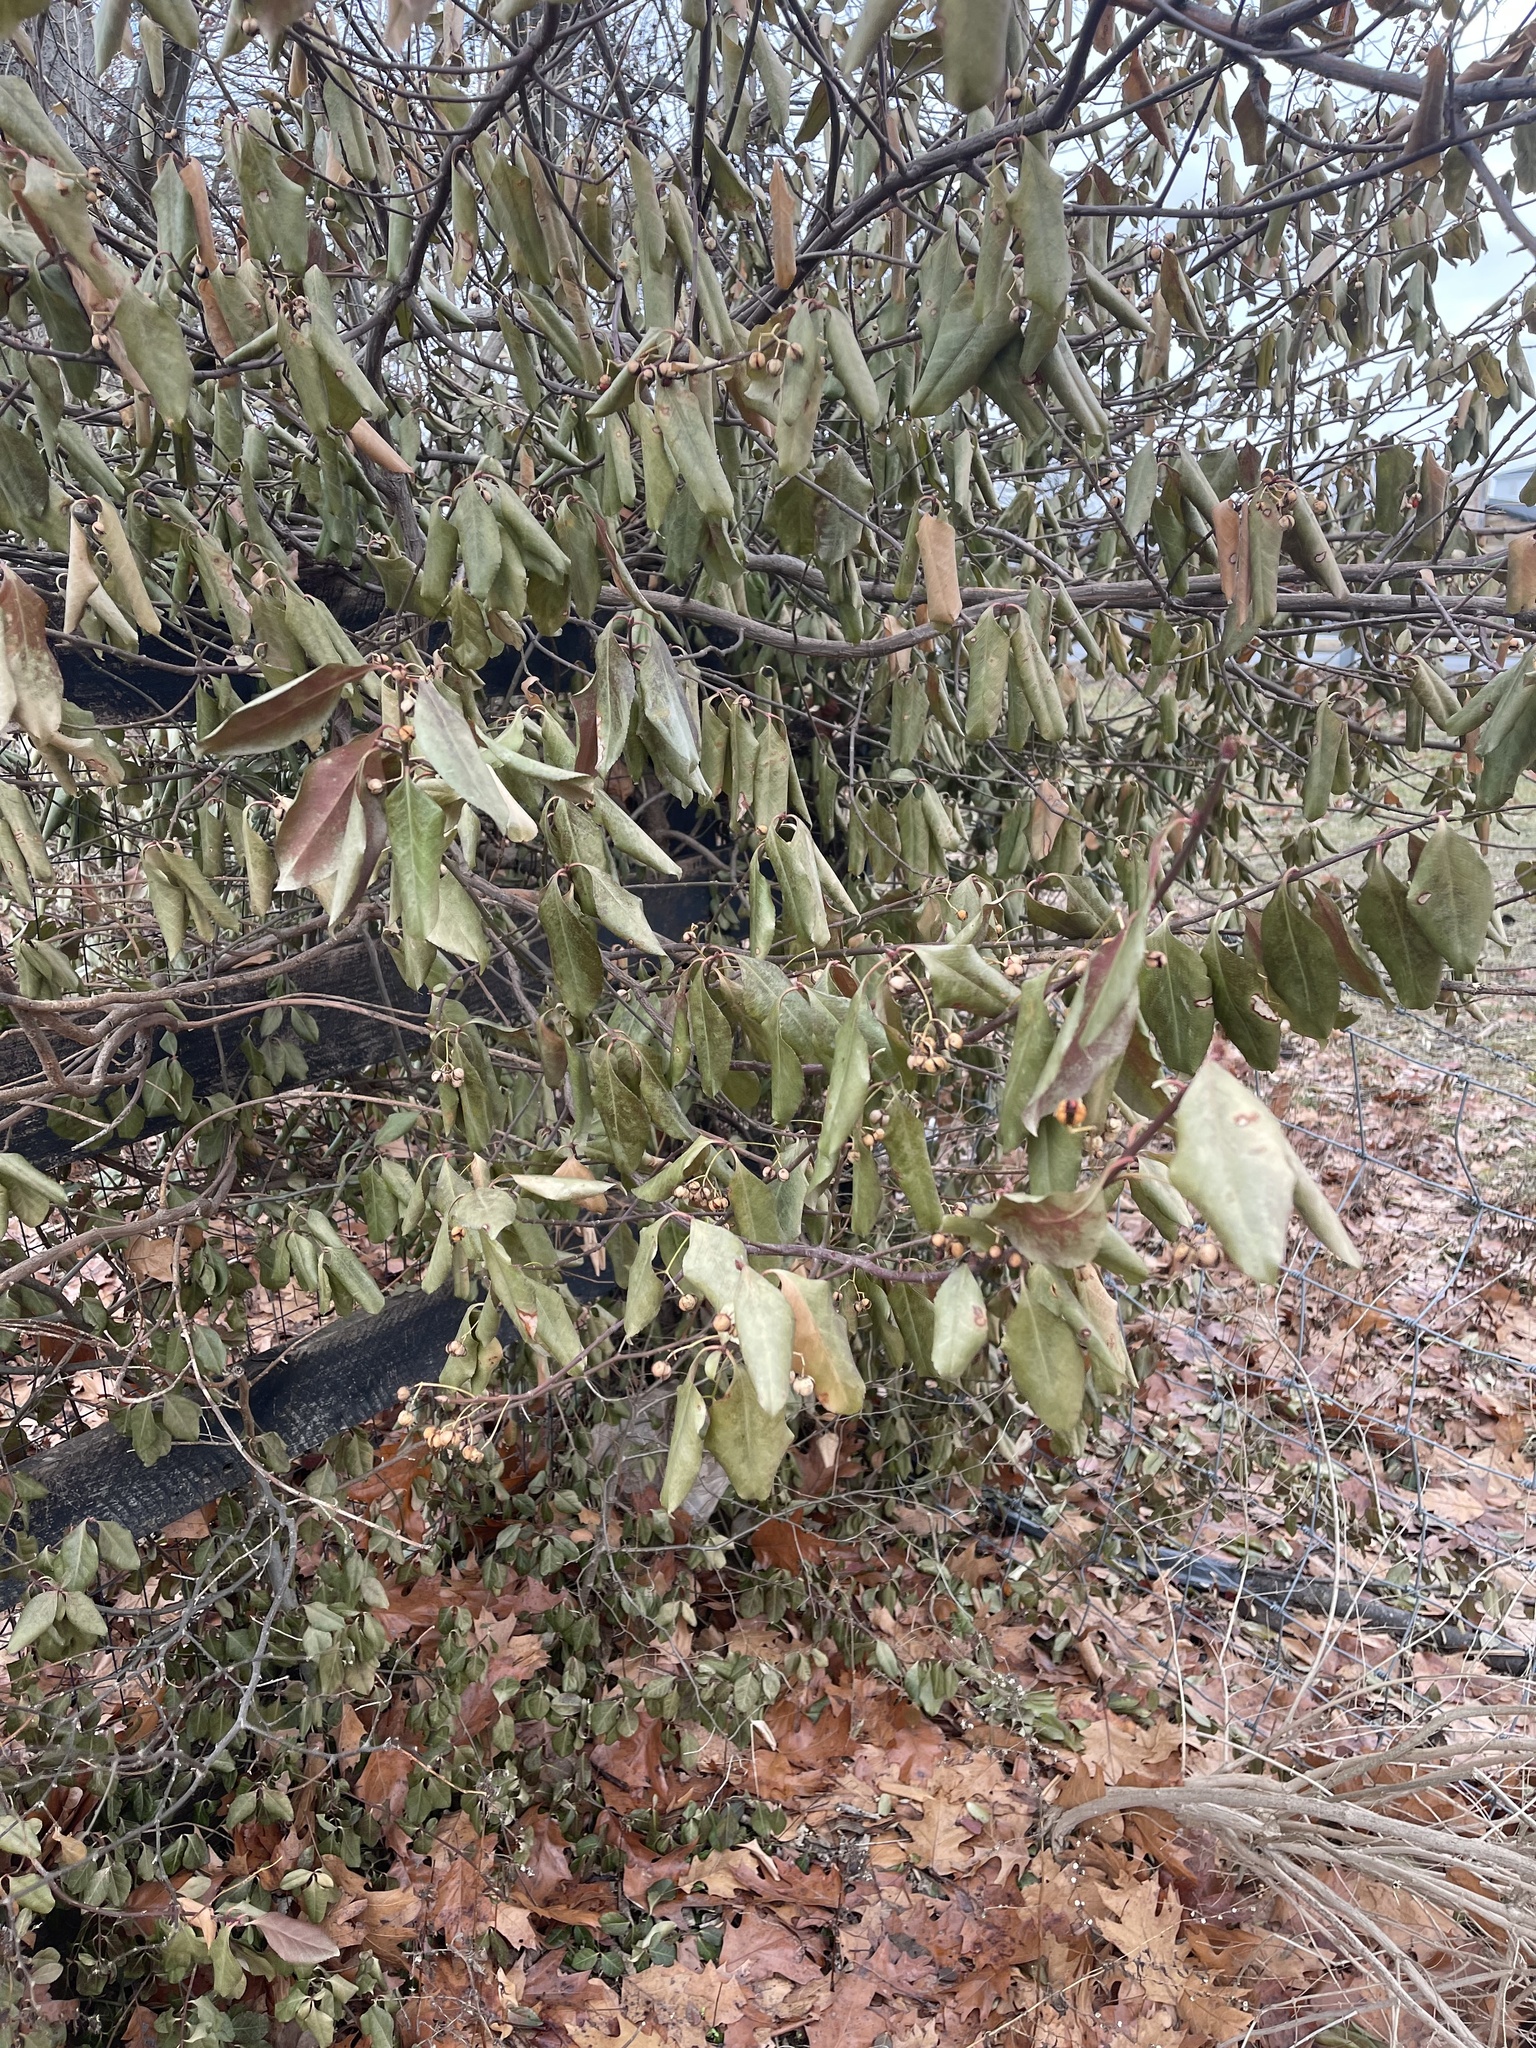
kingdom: Plantae
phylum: Tracheophyta
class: Magnoliopsida
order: Celastrales
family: Celastraceae
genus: Euonymus
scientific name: Euonymus fortunei
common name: Climbing euonymus
